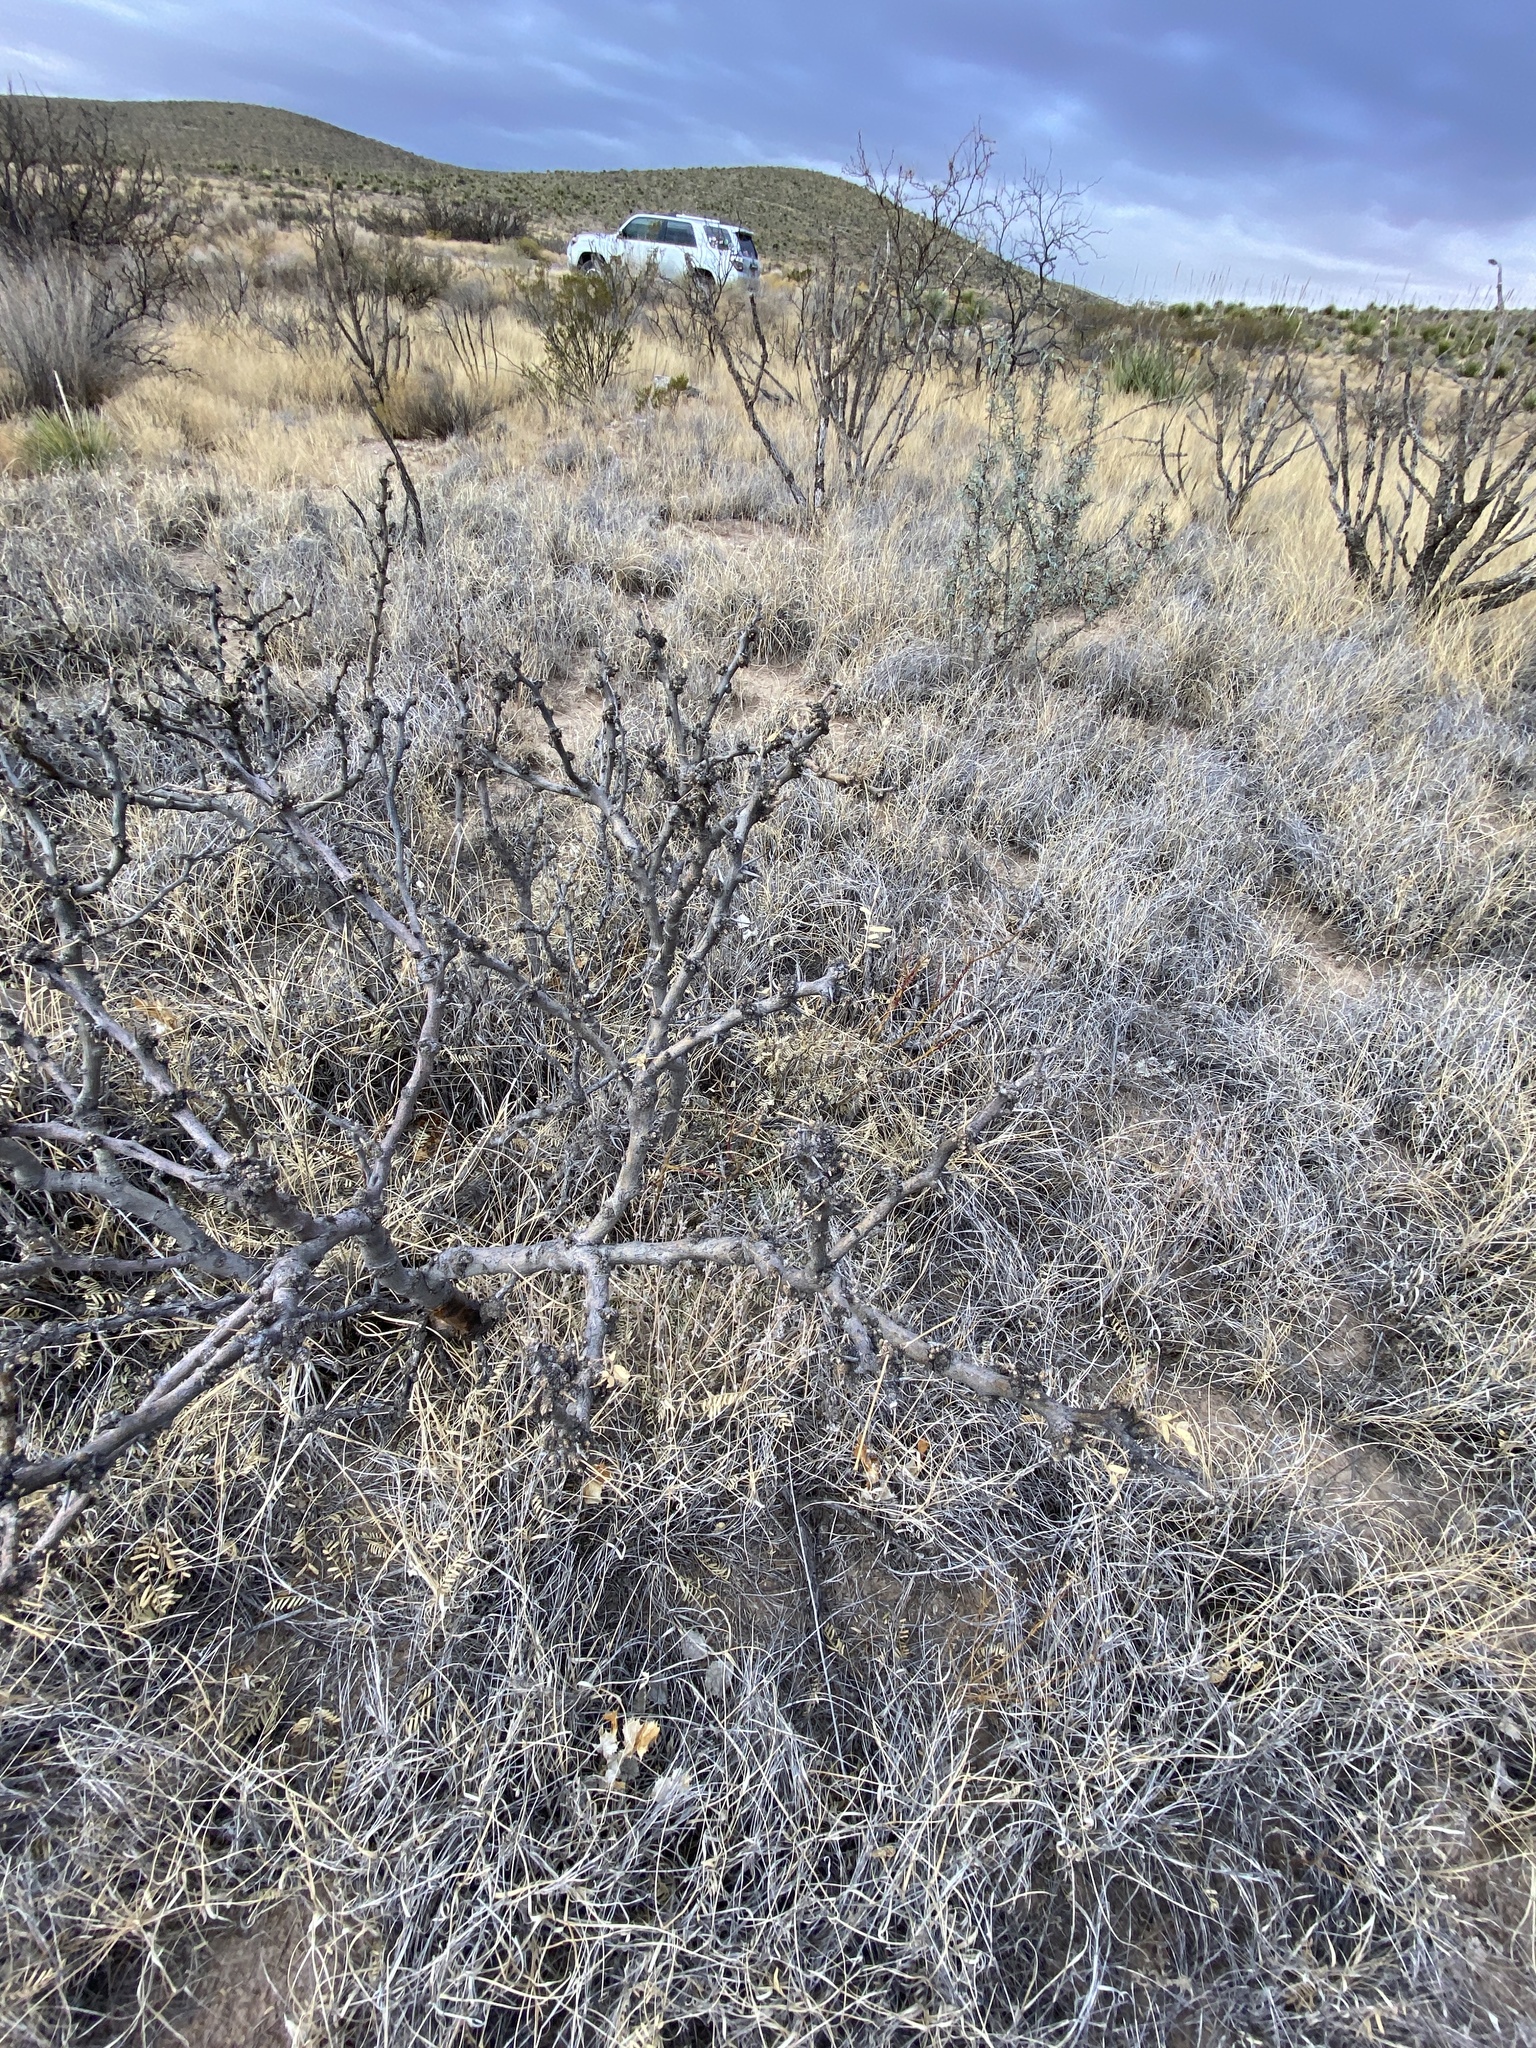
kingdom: Plantae
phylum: Tracheophyta
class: Magnoliopsida
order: Fabales
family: Fabaceae
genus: Prosopis
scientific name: Prosopis glandulosa
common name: Honey mesquite
